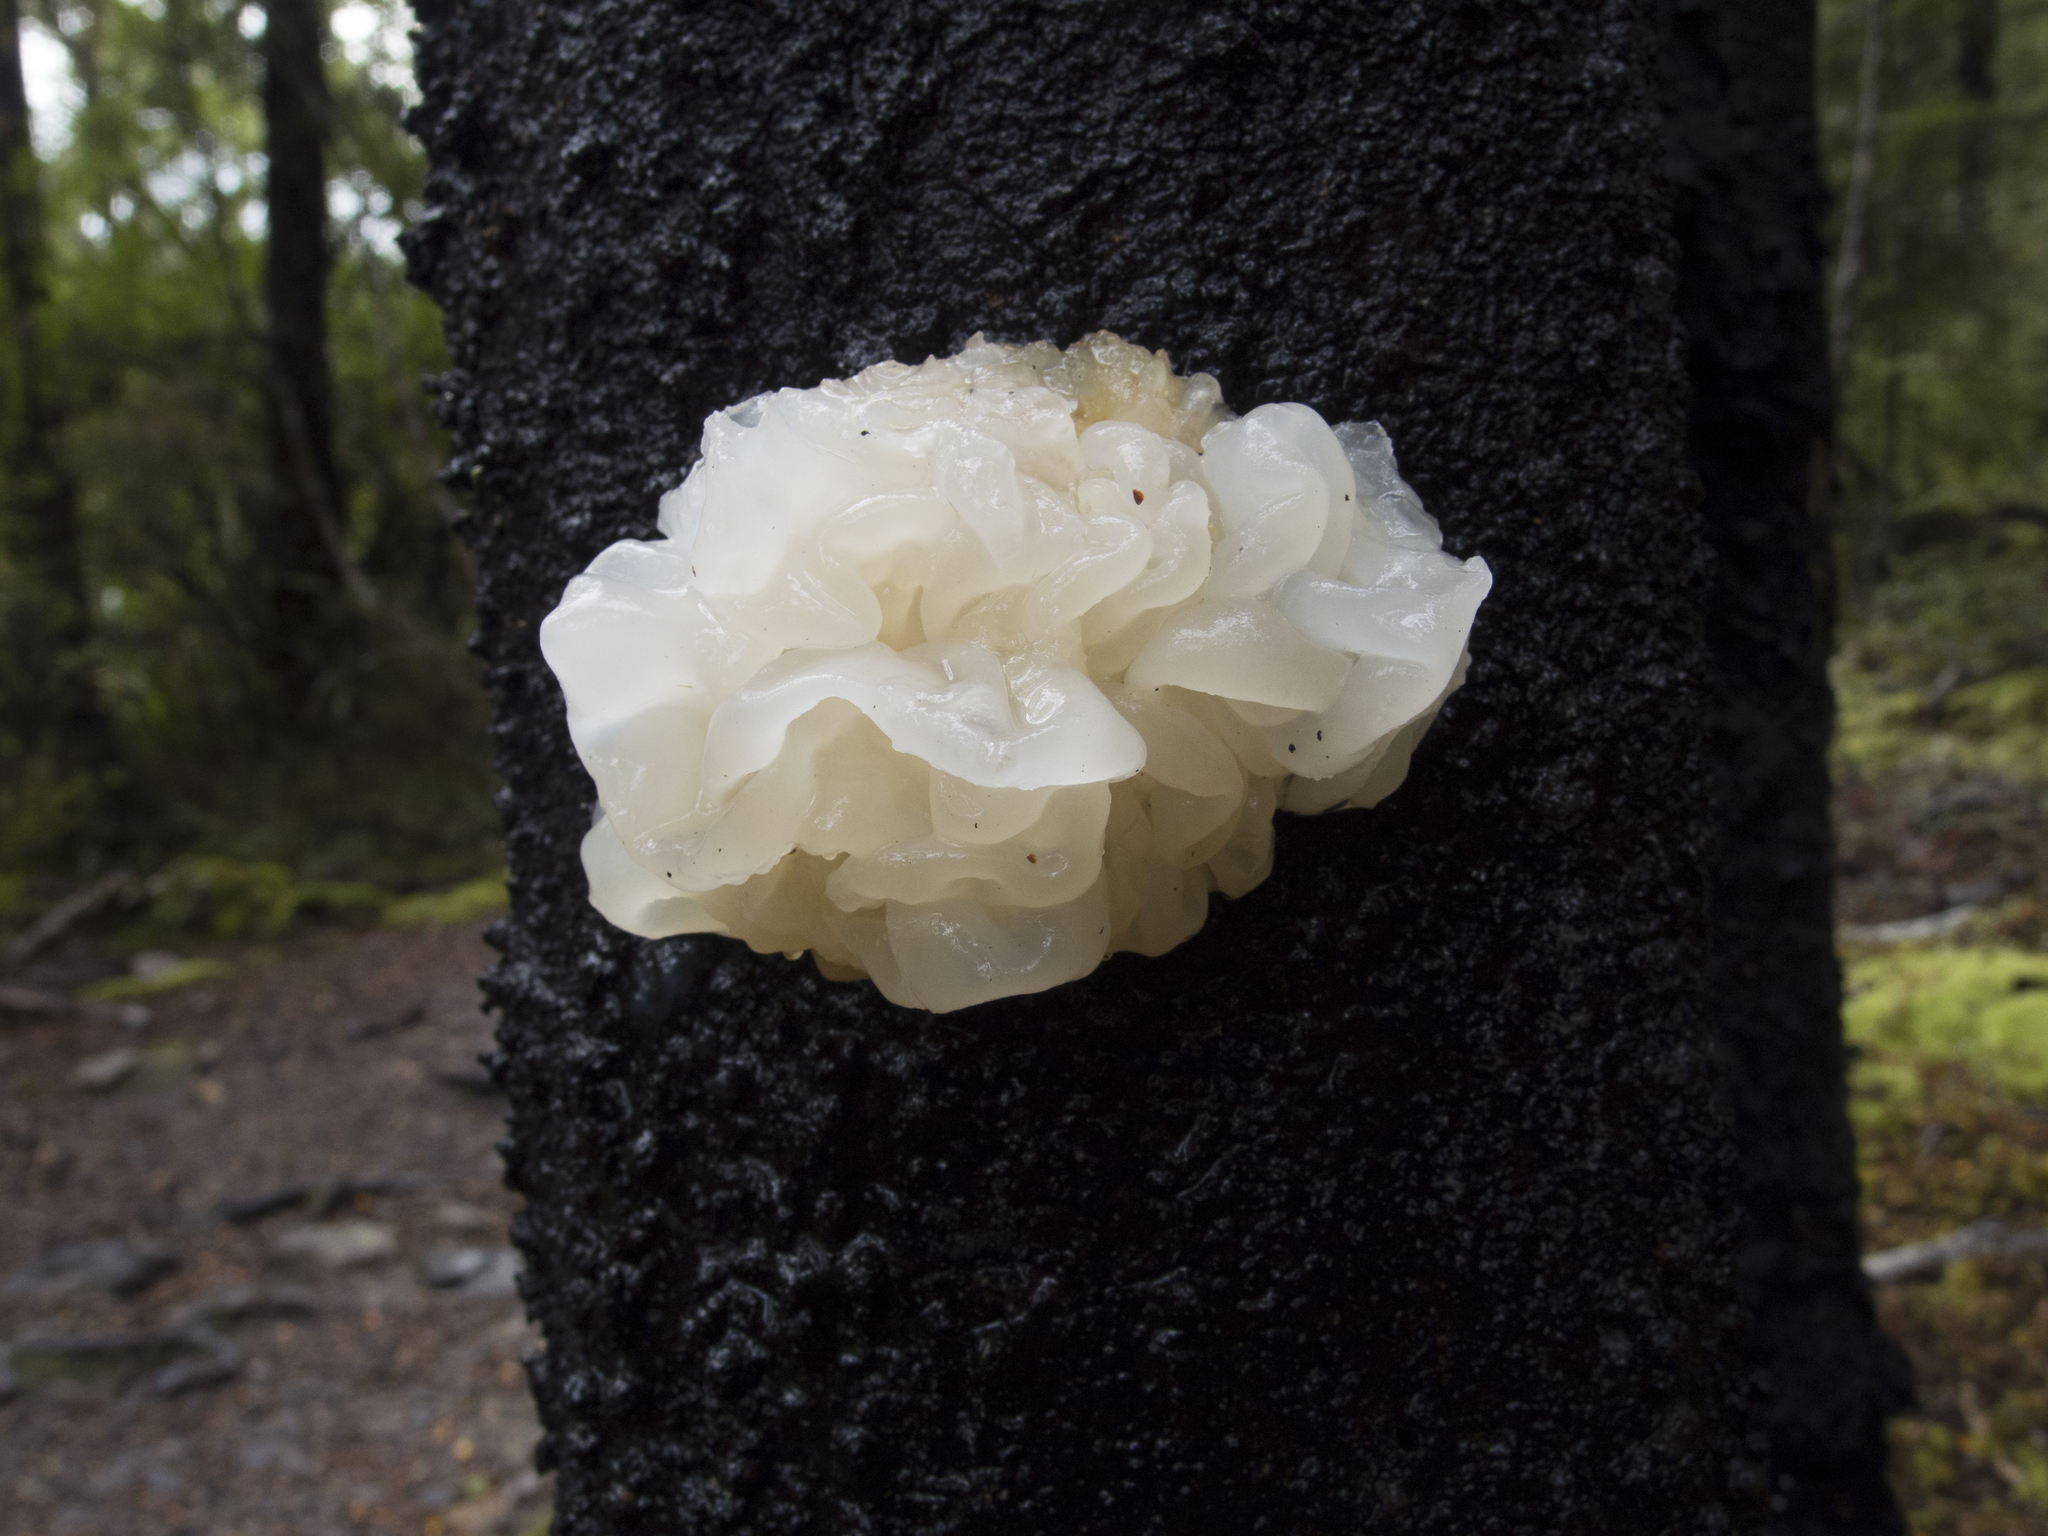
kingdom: Fungi
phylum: Basidiomycota
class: Tremellomycetes
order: Tremellales
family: Tremellaceae
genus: Tremella
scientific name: Tremella fuciformis
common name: Snow fungus
